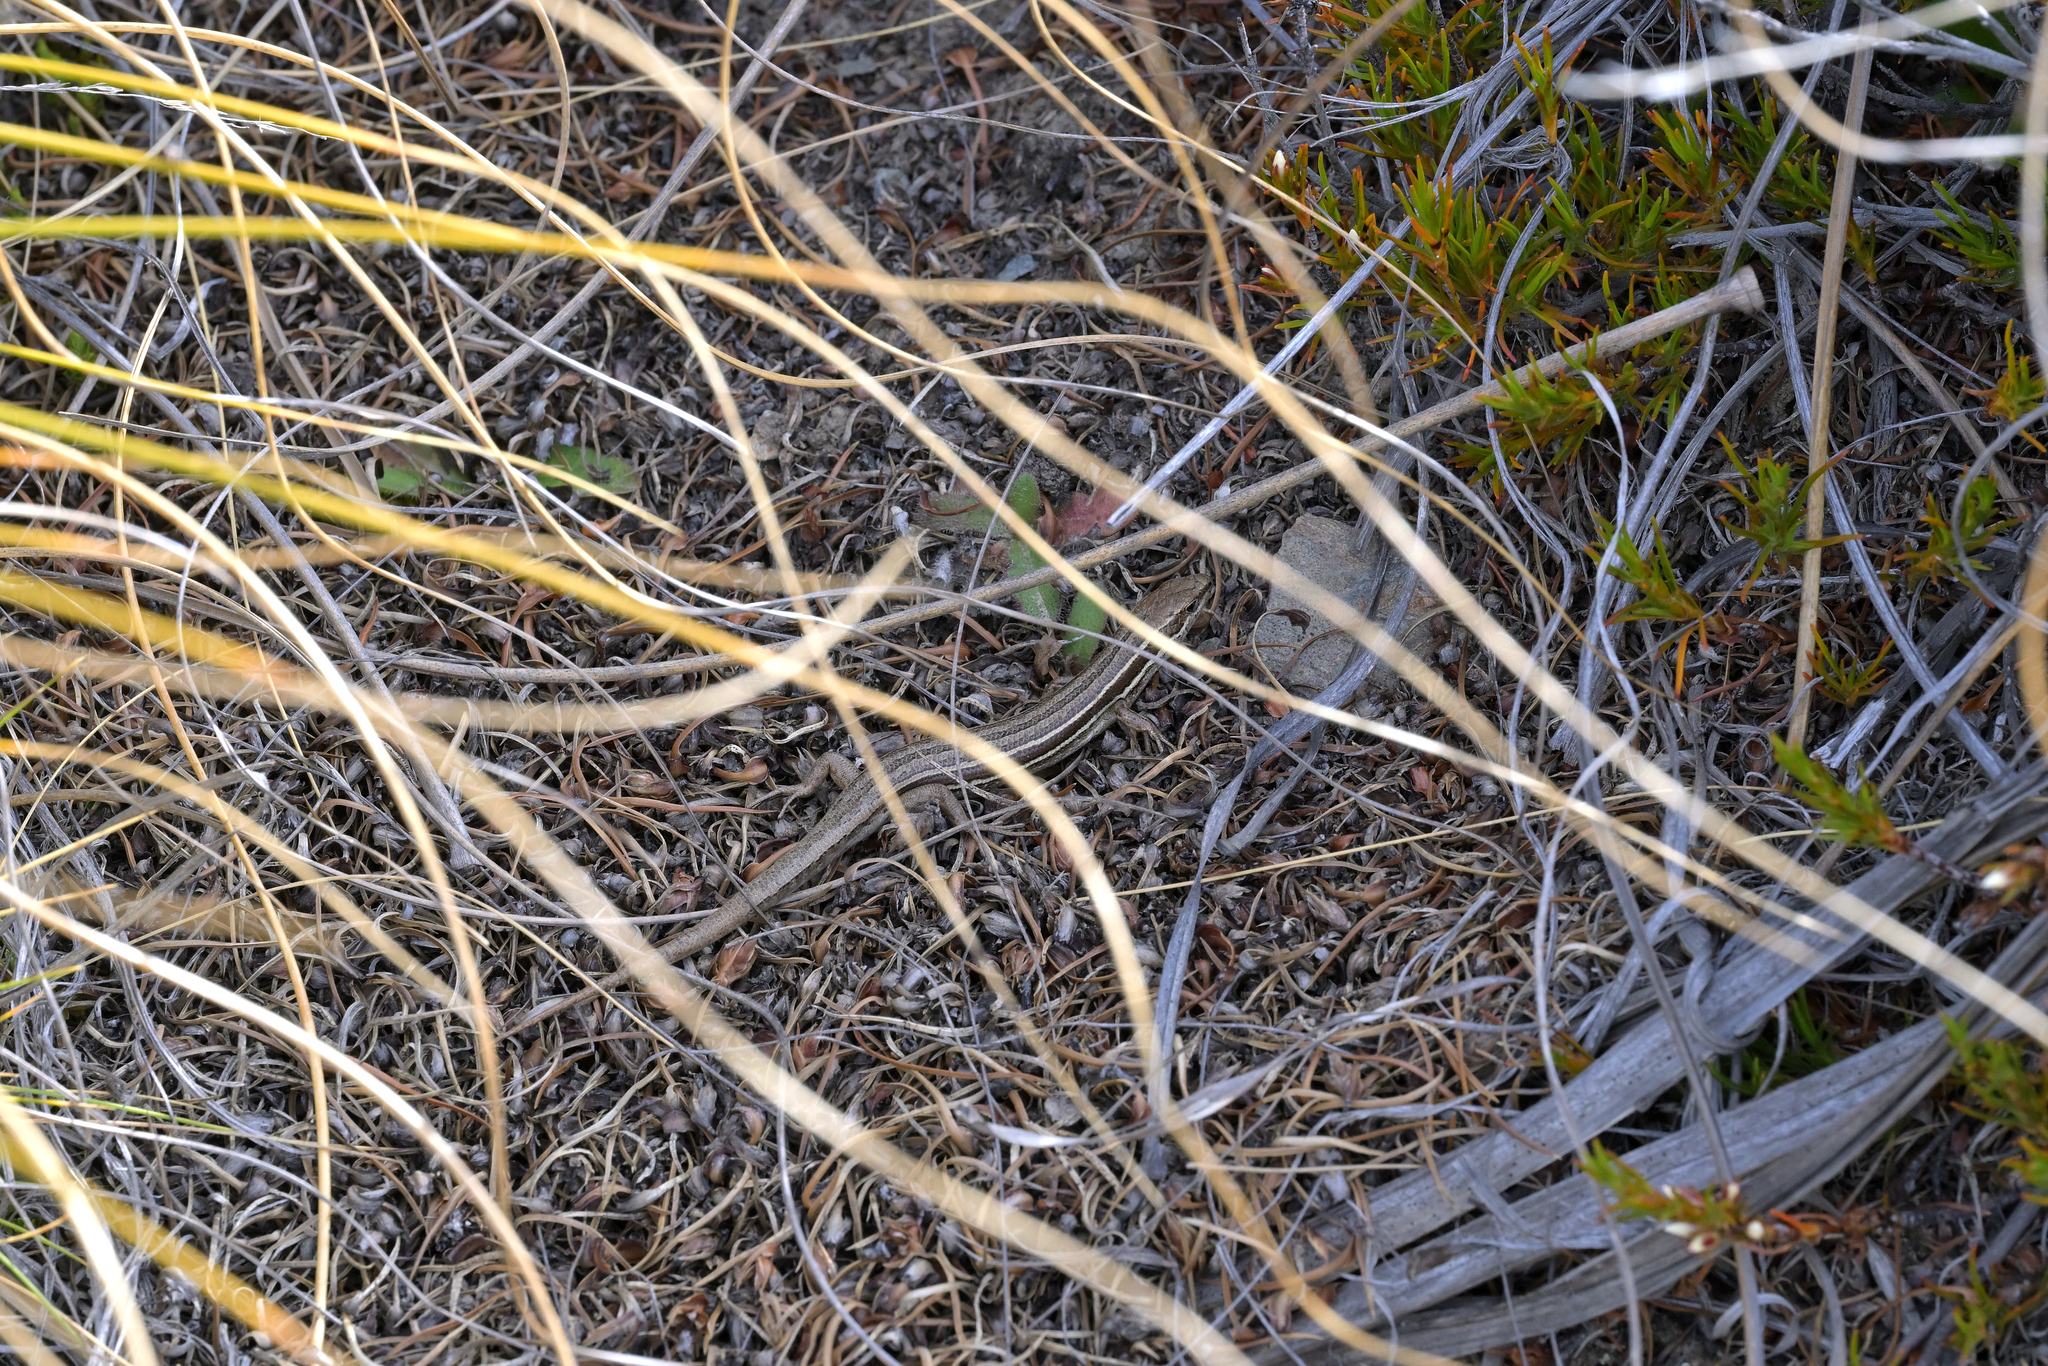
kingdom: Animalia
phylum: Chordata
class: Squamata
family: Scincidae
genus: Oligosoma
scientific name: Oligosoma maccanni
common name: Mccann’s skink
